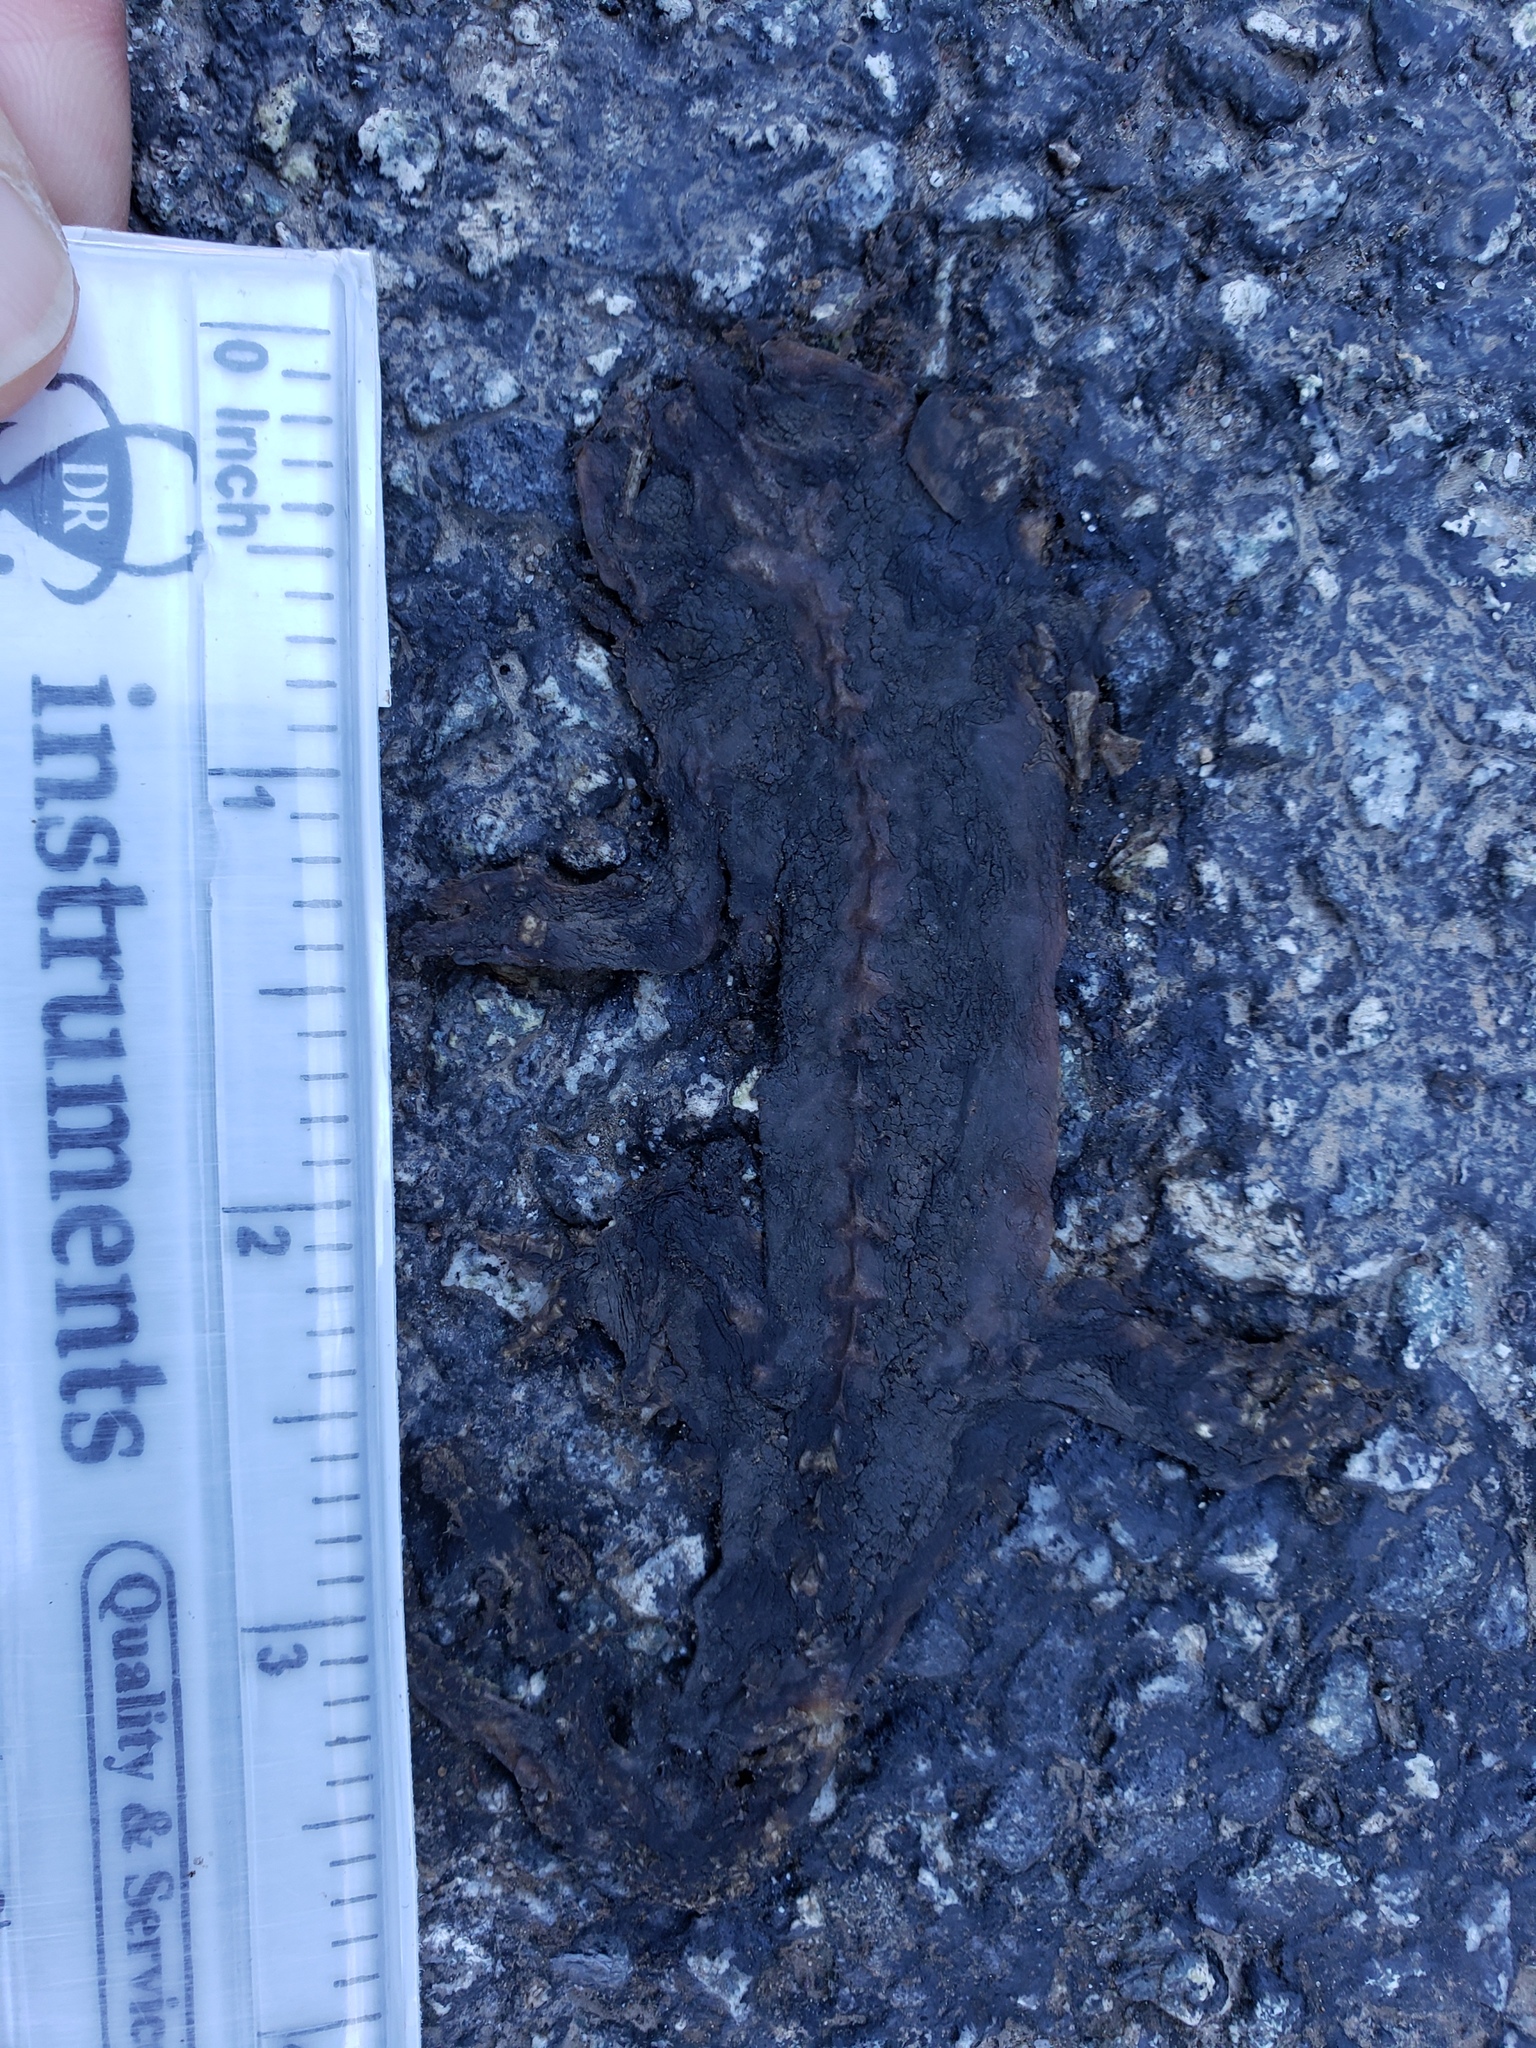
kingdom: Animalia
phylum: Chordata
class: Amphibia
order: Caudata
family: Salamandridae
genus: Taricha
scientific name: Taricha
